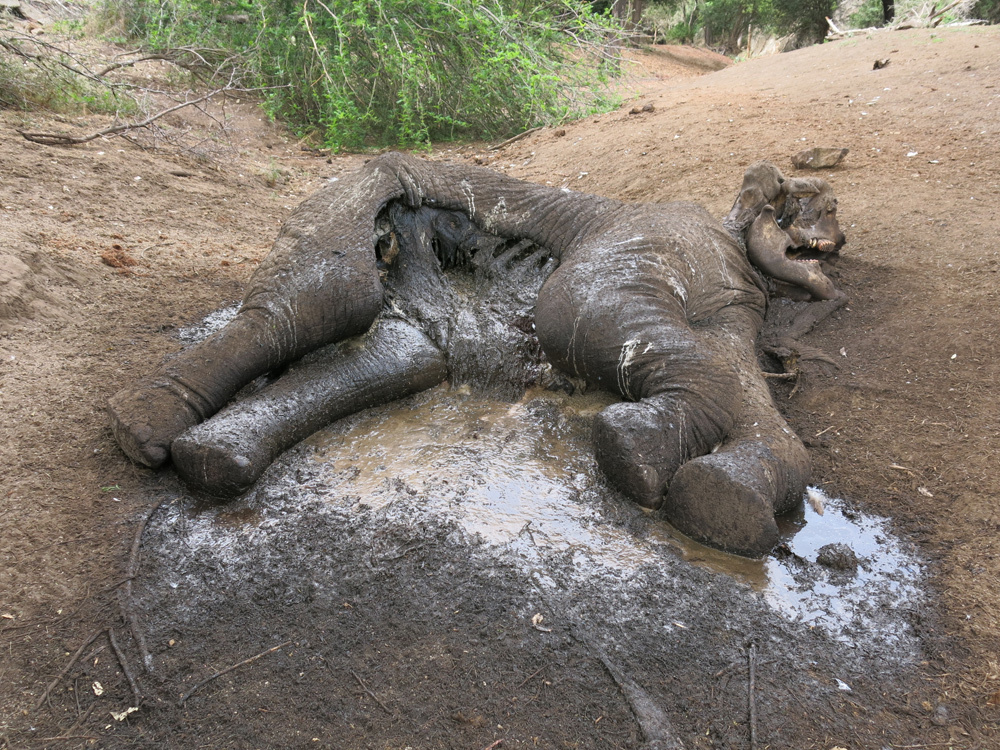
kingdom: Animalia
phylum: Chordata
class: Mammalia
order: Proboscidea
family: Elephantidae
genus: Loxodonta
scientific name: Loxodonta africana
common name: African elephant
